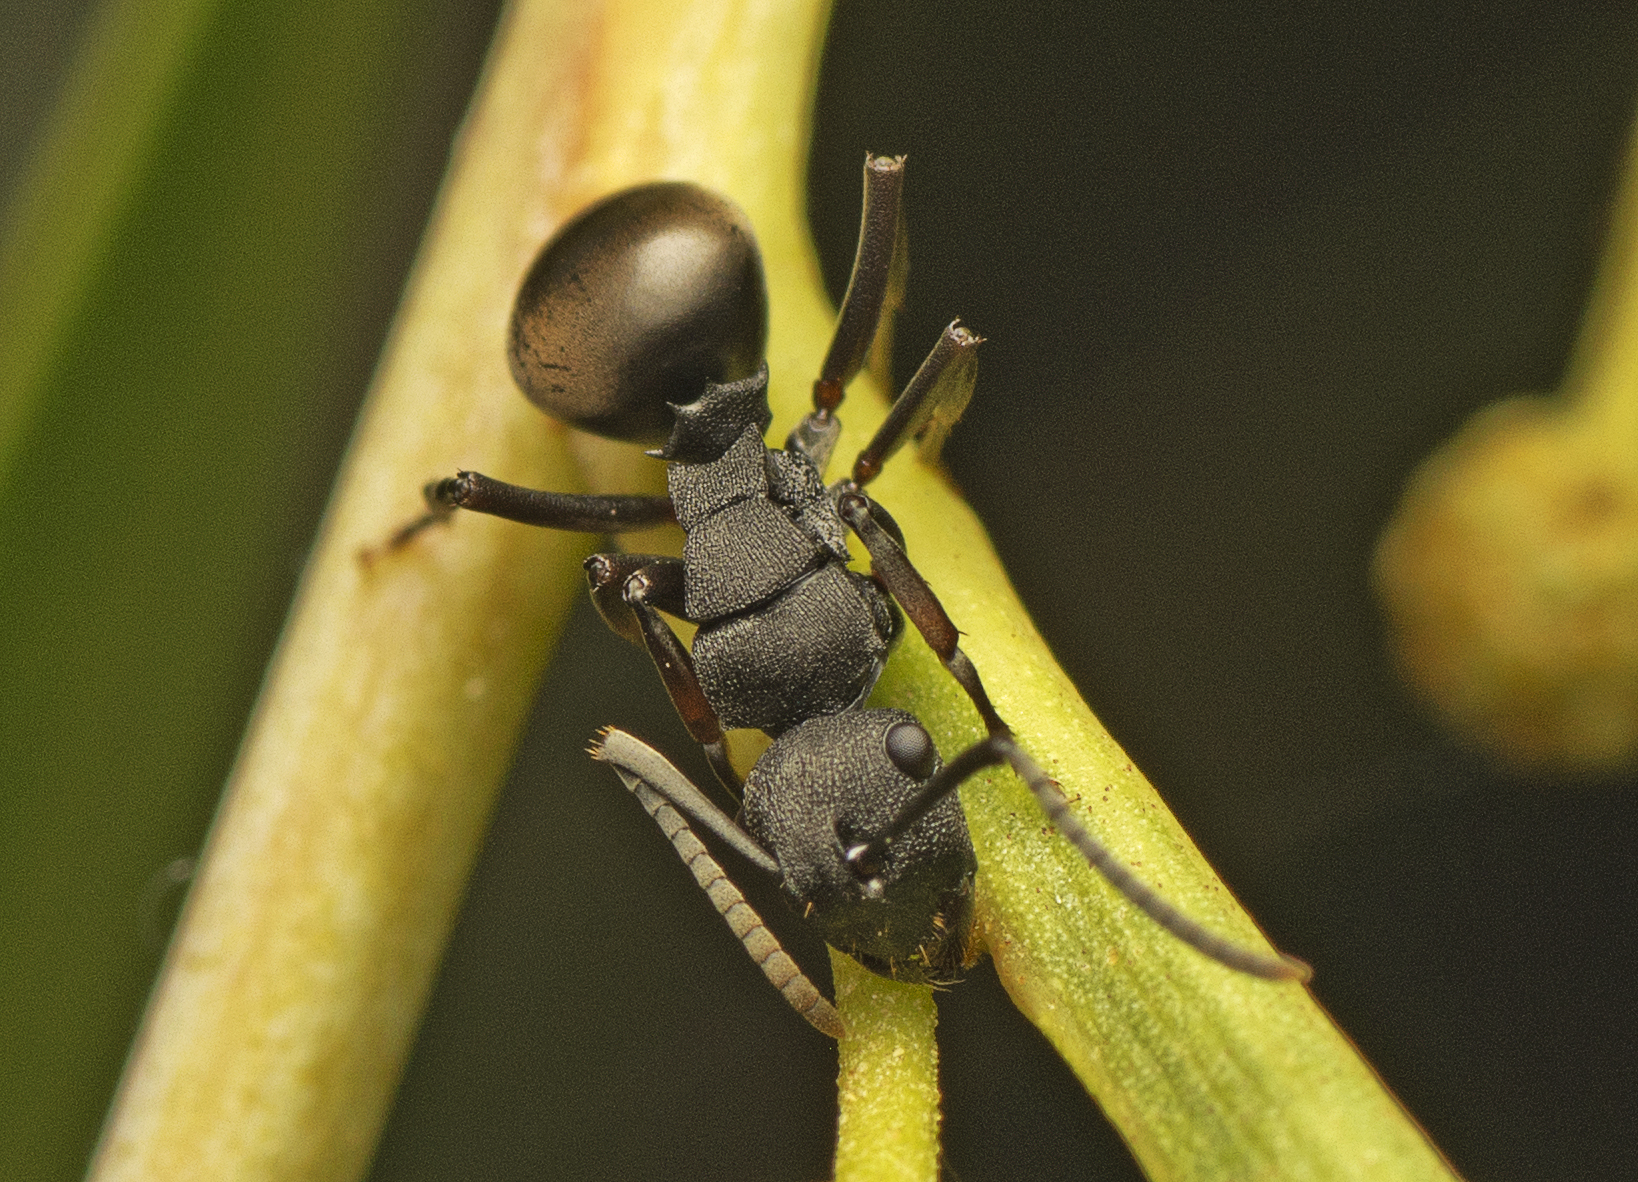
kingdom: Animalia
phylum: Arthropoda
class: Insecta
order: Hymenoptera
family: Formicidae
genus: Polyrhachis
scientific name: Polyrhachis phryne
